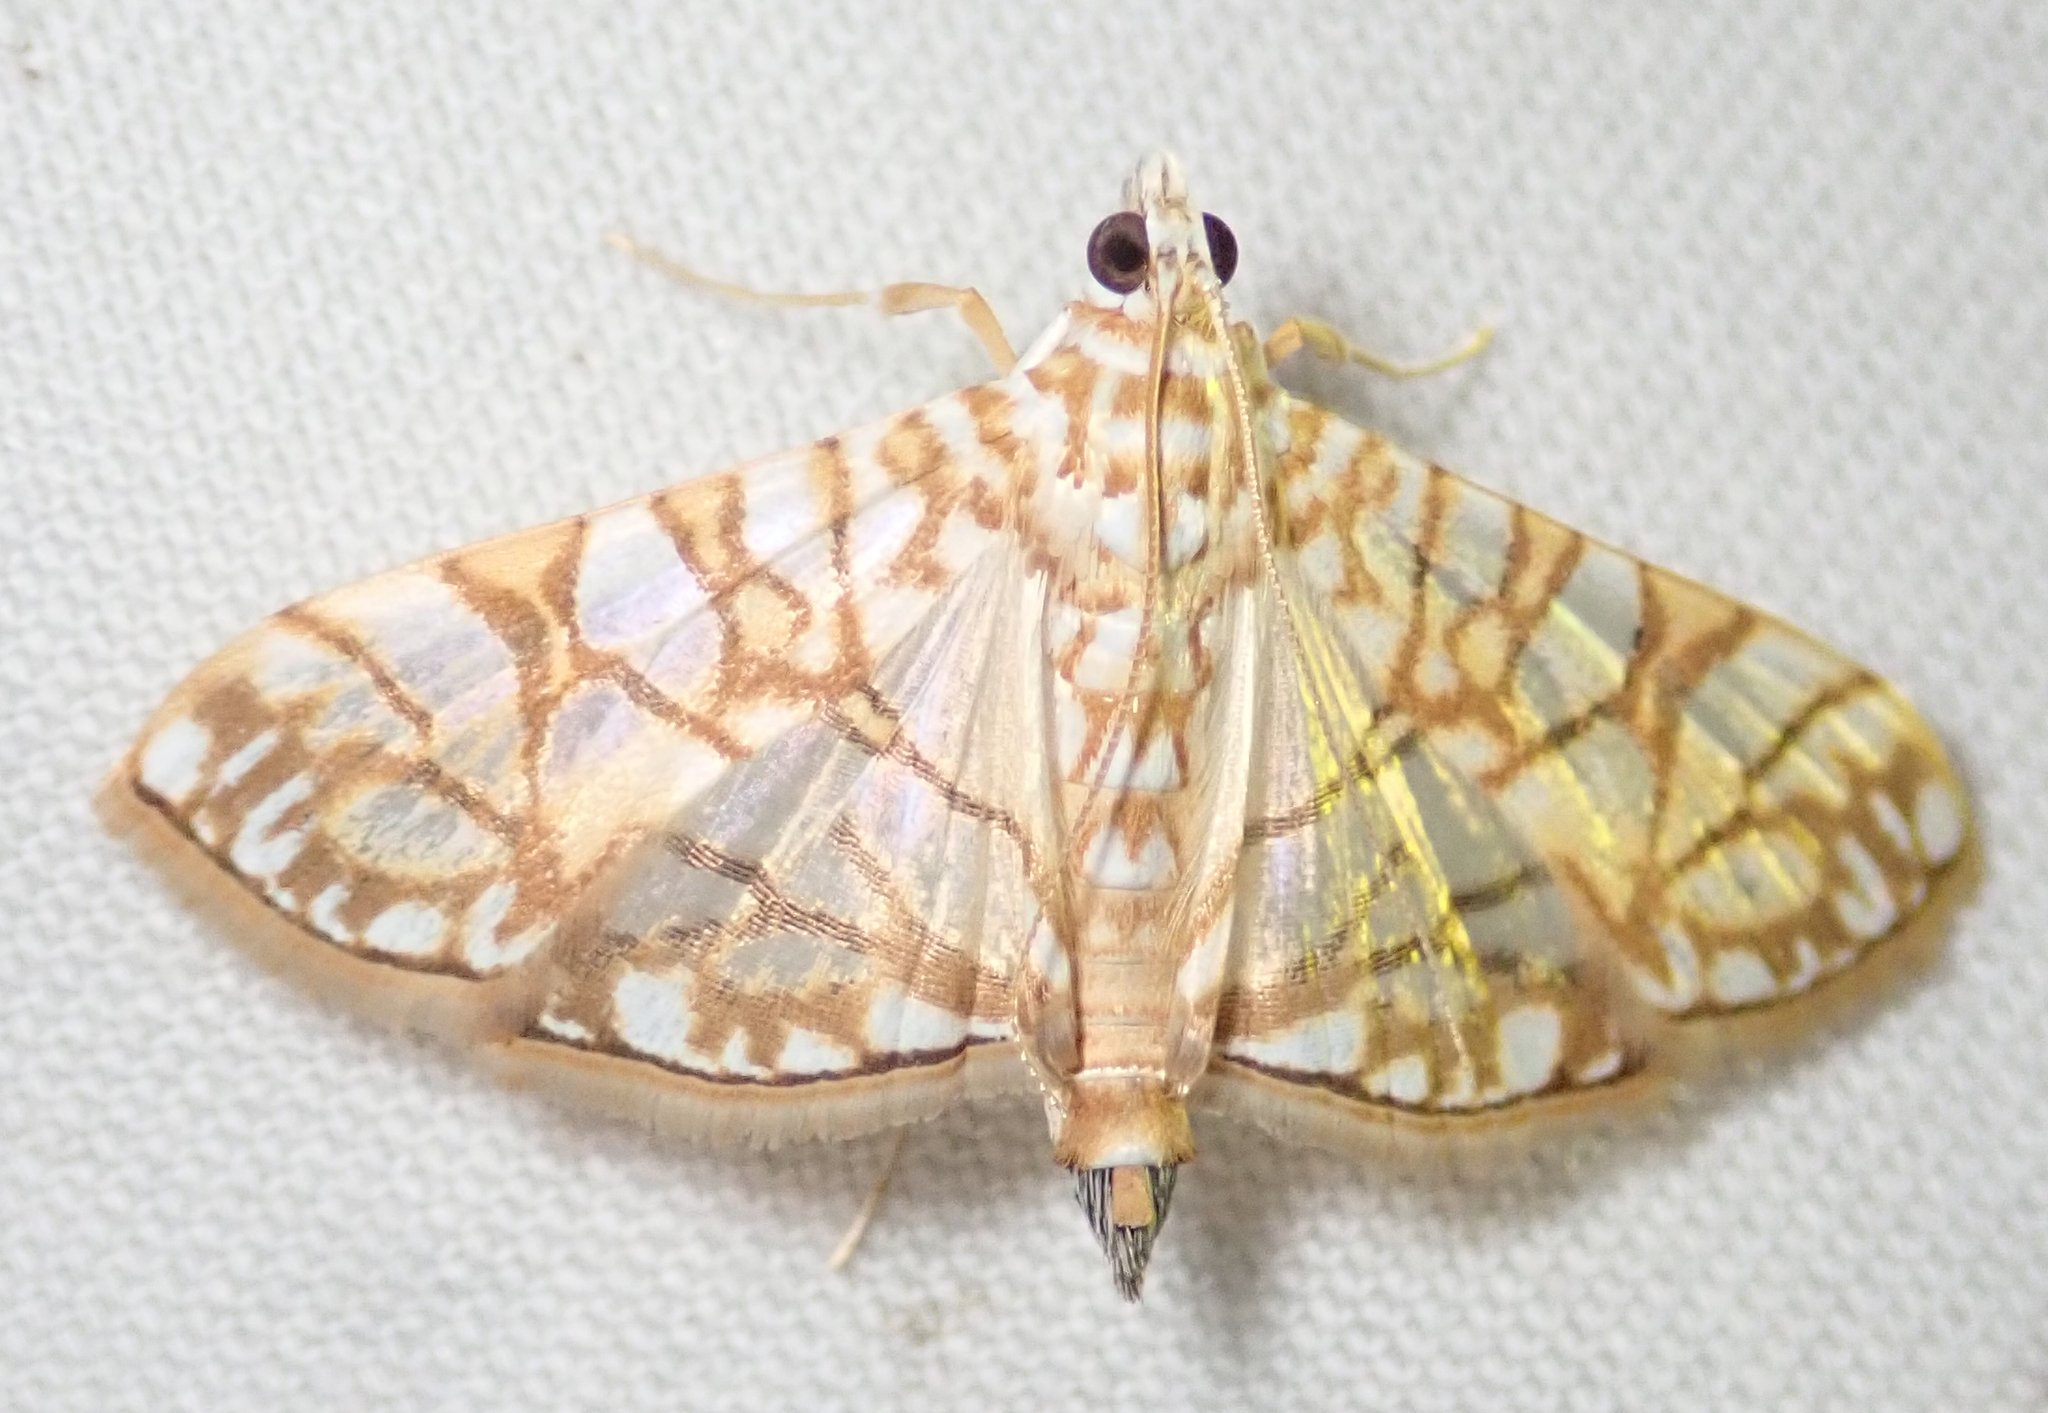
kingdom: Animalia
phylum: Arthropoda
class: Insecta
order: Lepidoptera
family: Crambidae
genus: Synclera
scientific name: Synclera traducalis
